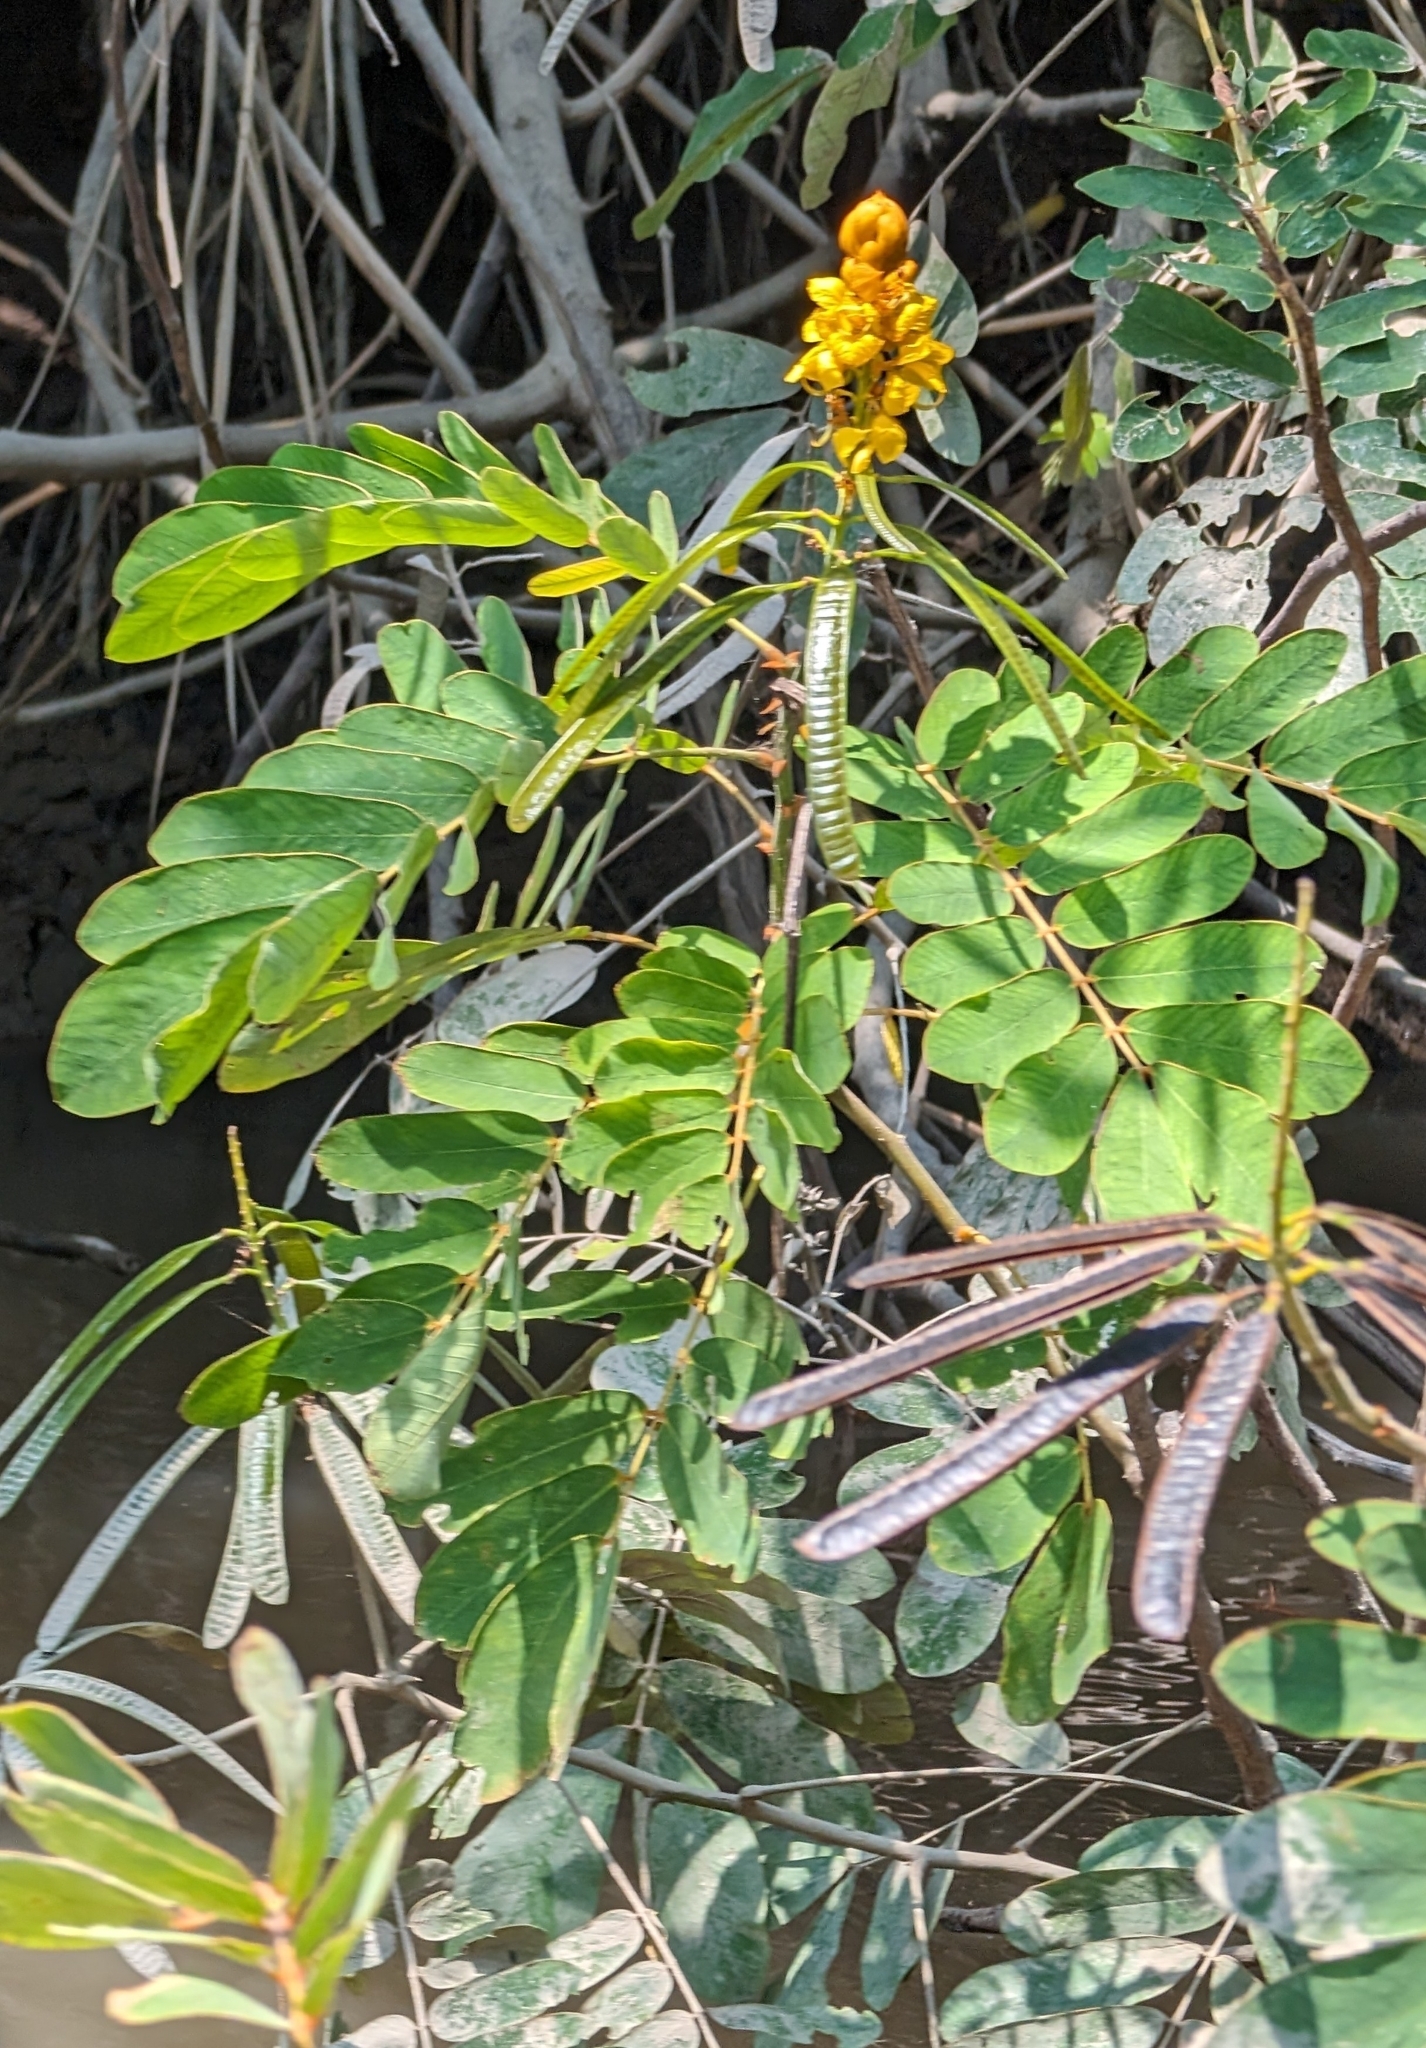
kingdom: Plantae
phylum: Tracheophyta
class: Magnoliopsida
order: Fabales
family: Fabaceae
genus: Senna
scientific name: Senna reticulata
